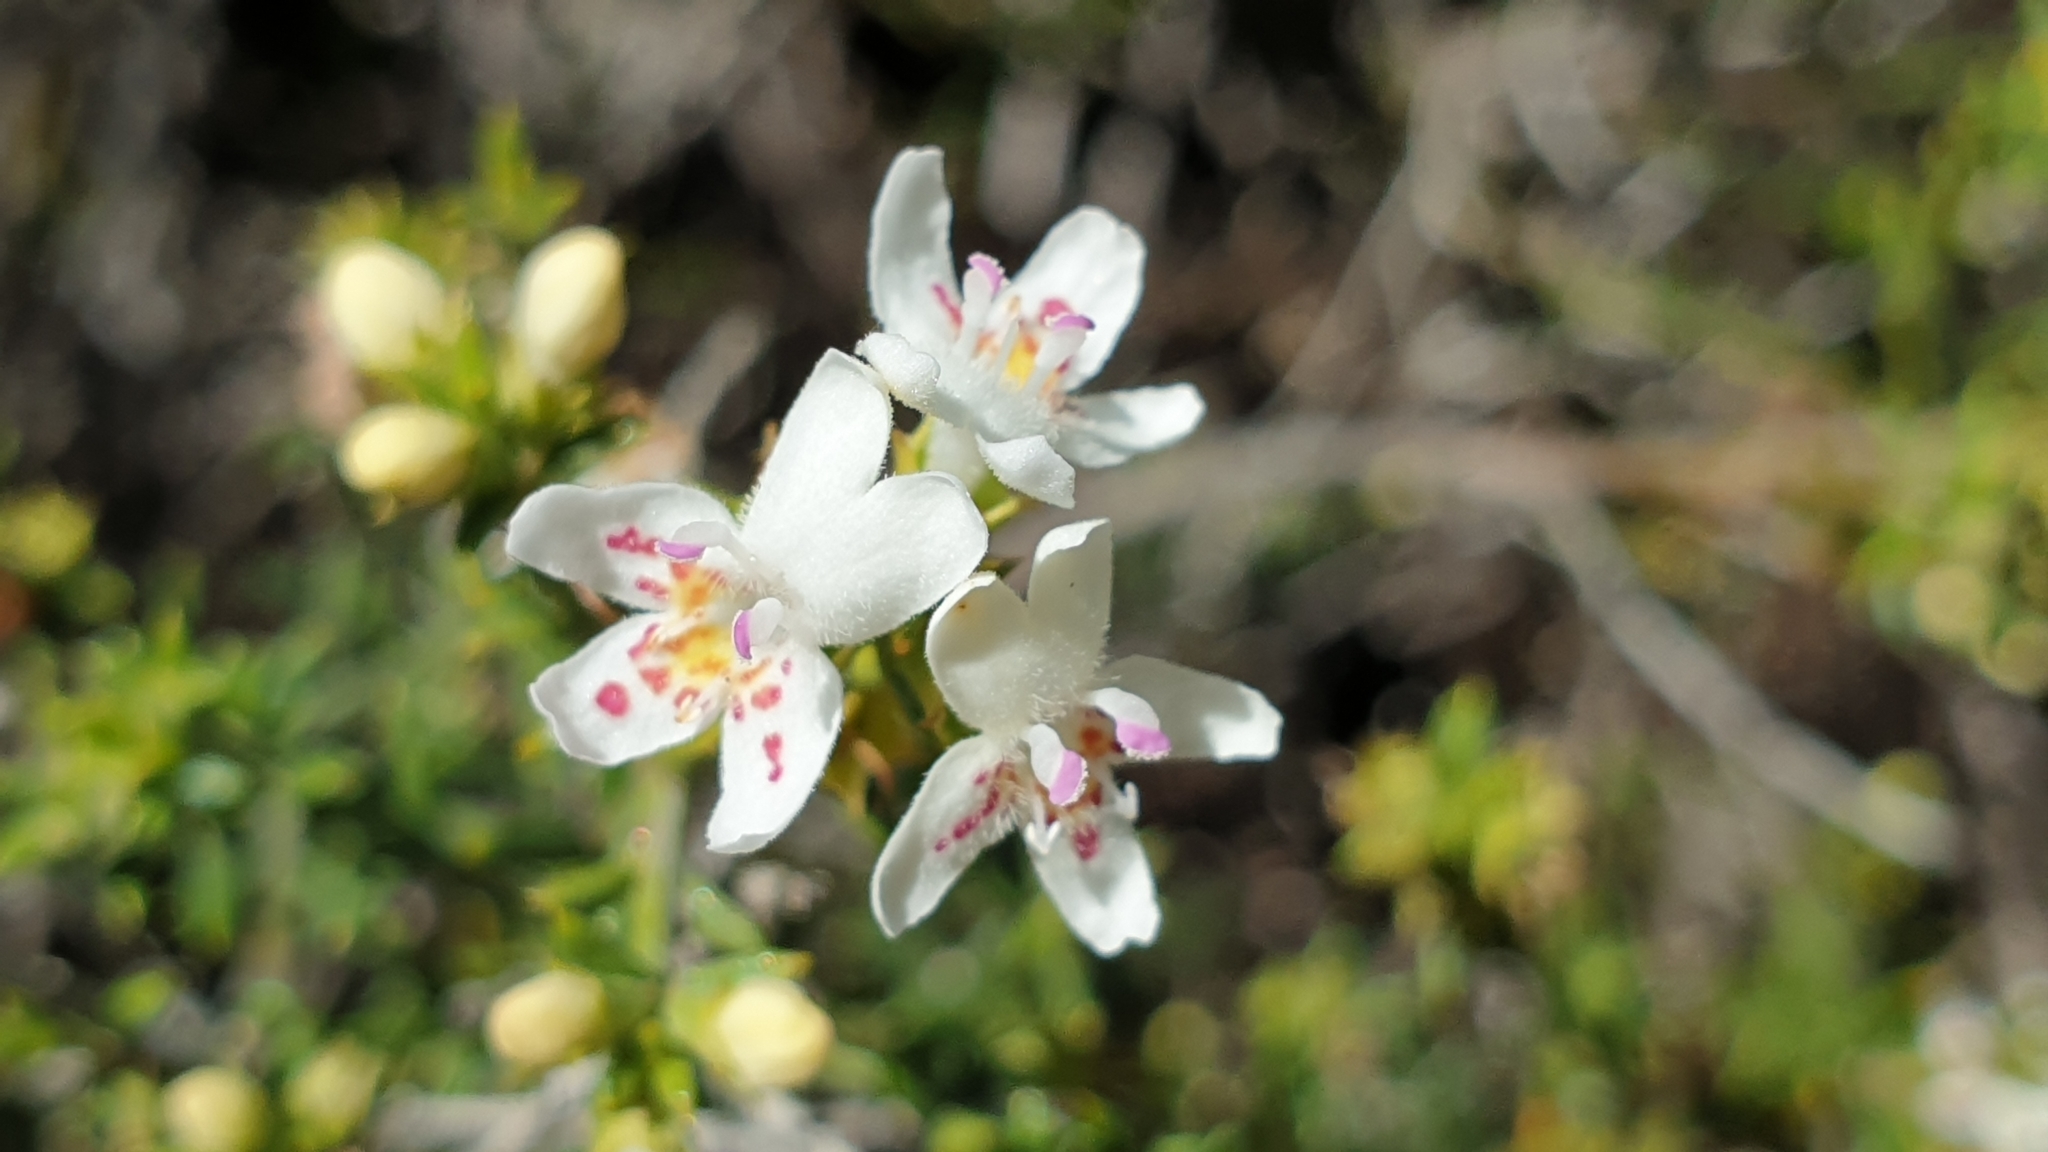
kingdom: Plantae
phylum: Tracheophyta
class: Magnoliopsida
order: Lamiales
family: Lamiaceae
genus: Westringia
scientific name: Westringia rigida
